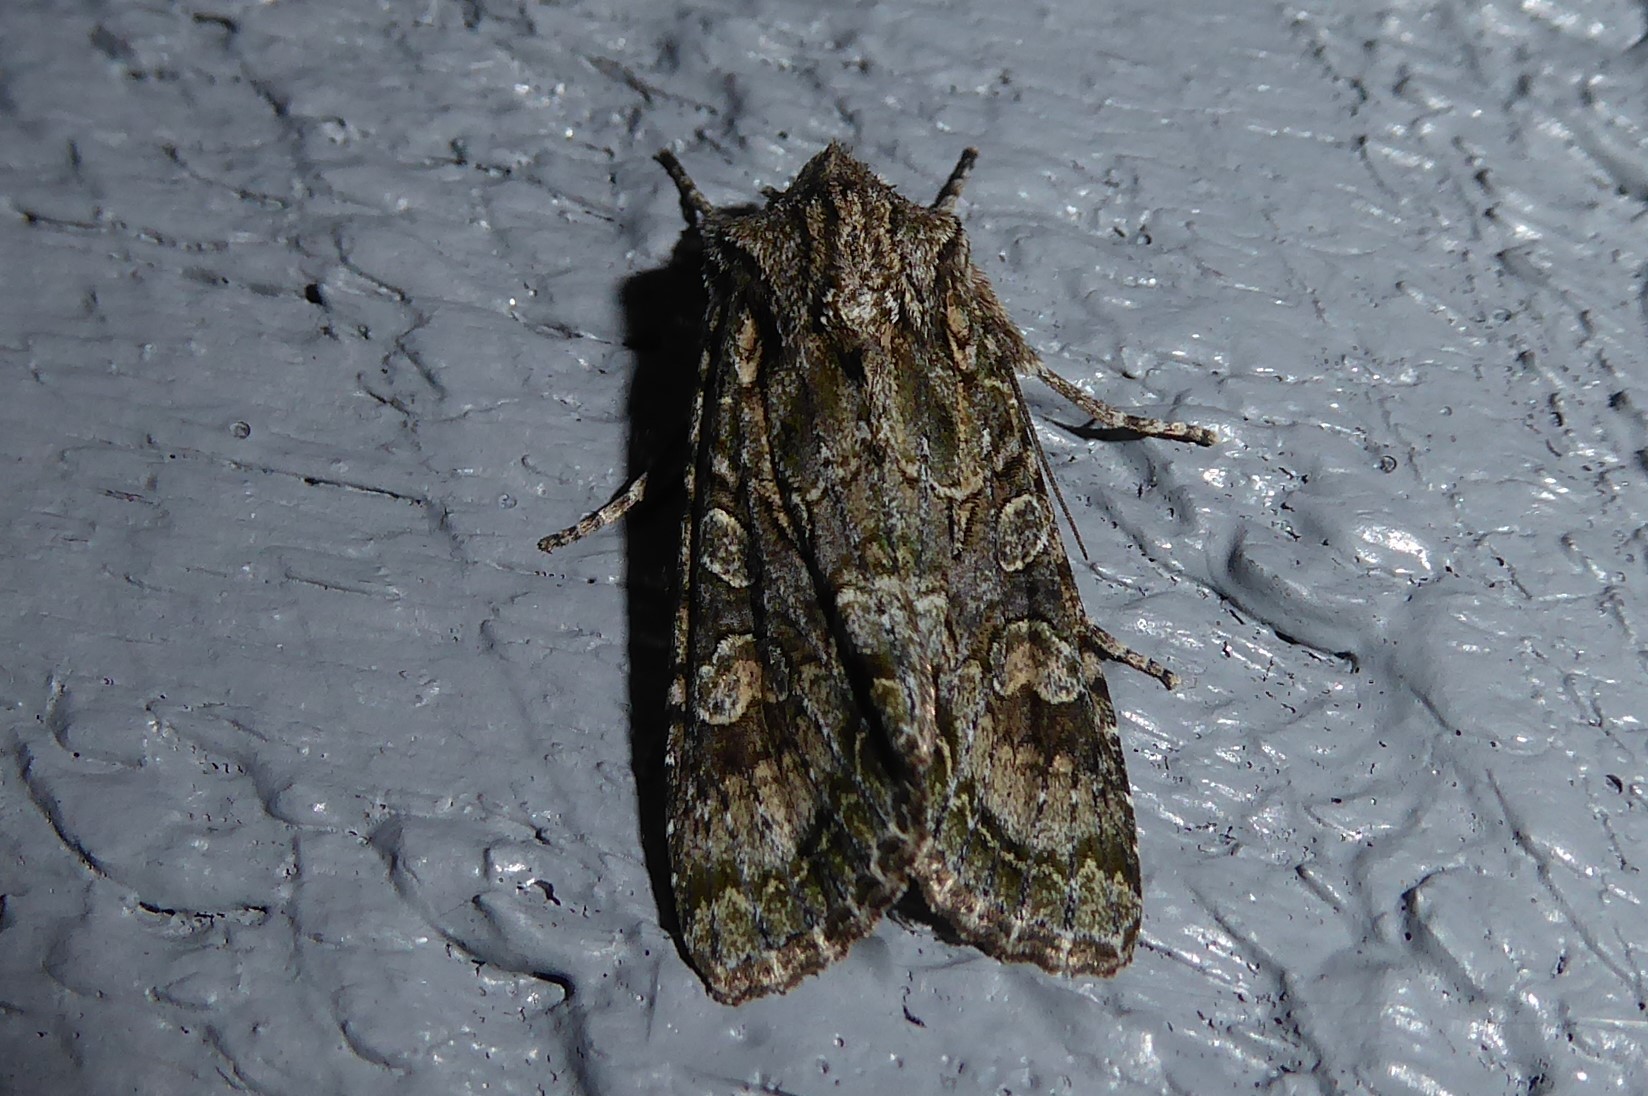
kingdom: Animalia
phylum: Arthropoda
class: Insecta
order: Lepidoptera
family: Noctuidae
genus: Ichneutica
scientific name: Ichneutica mutans
